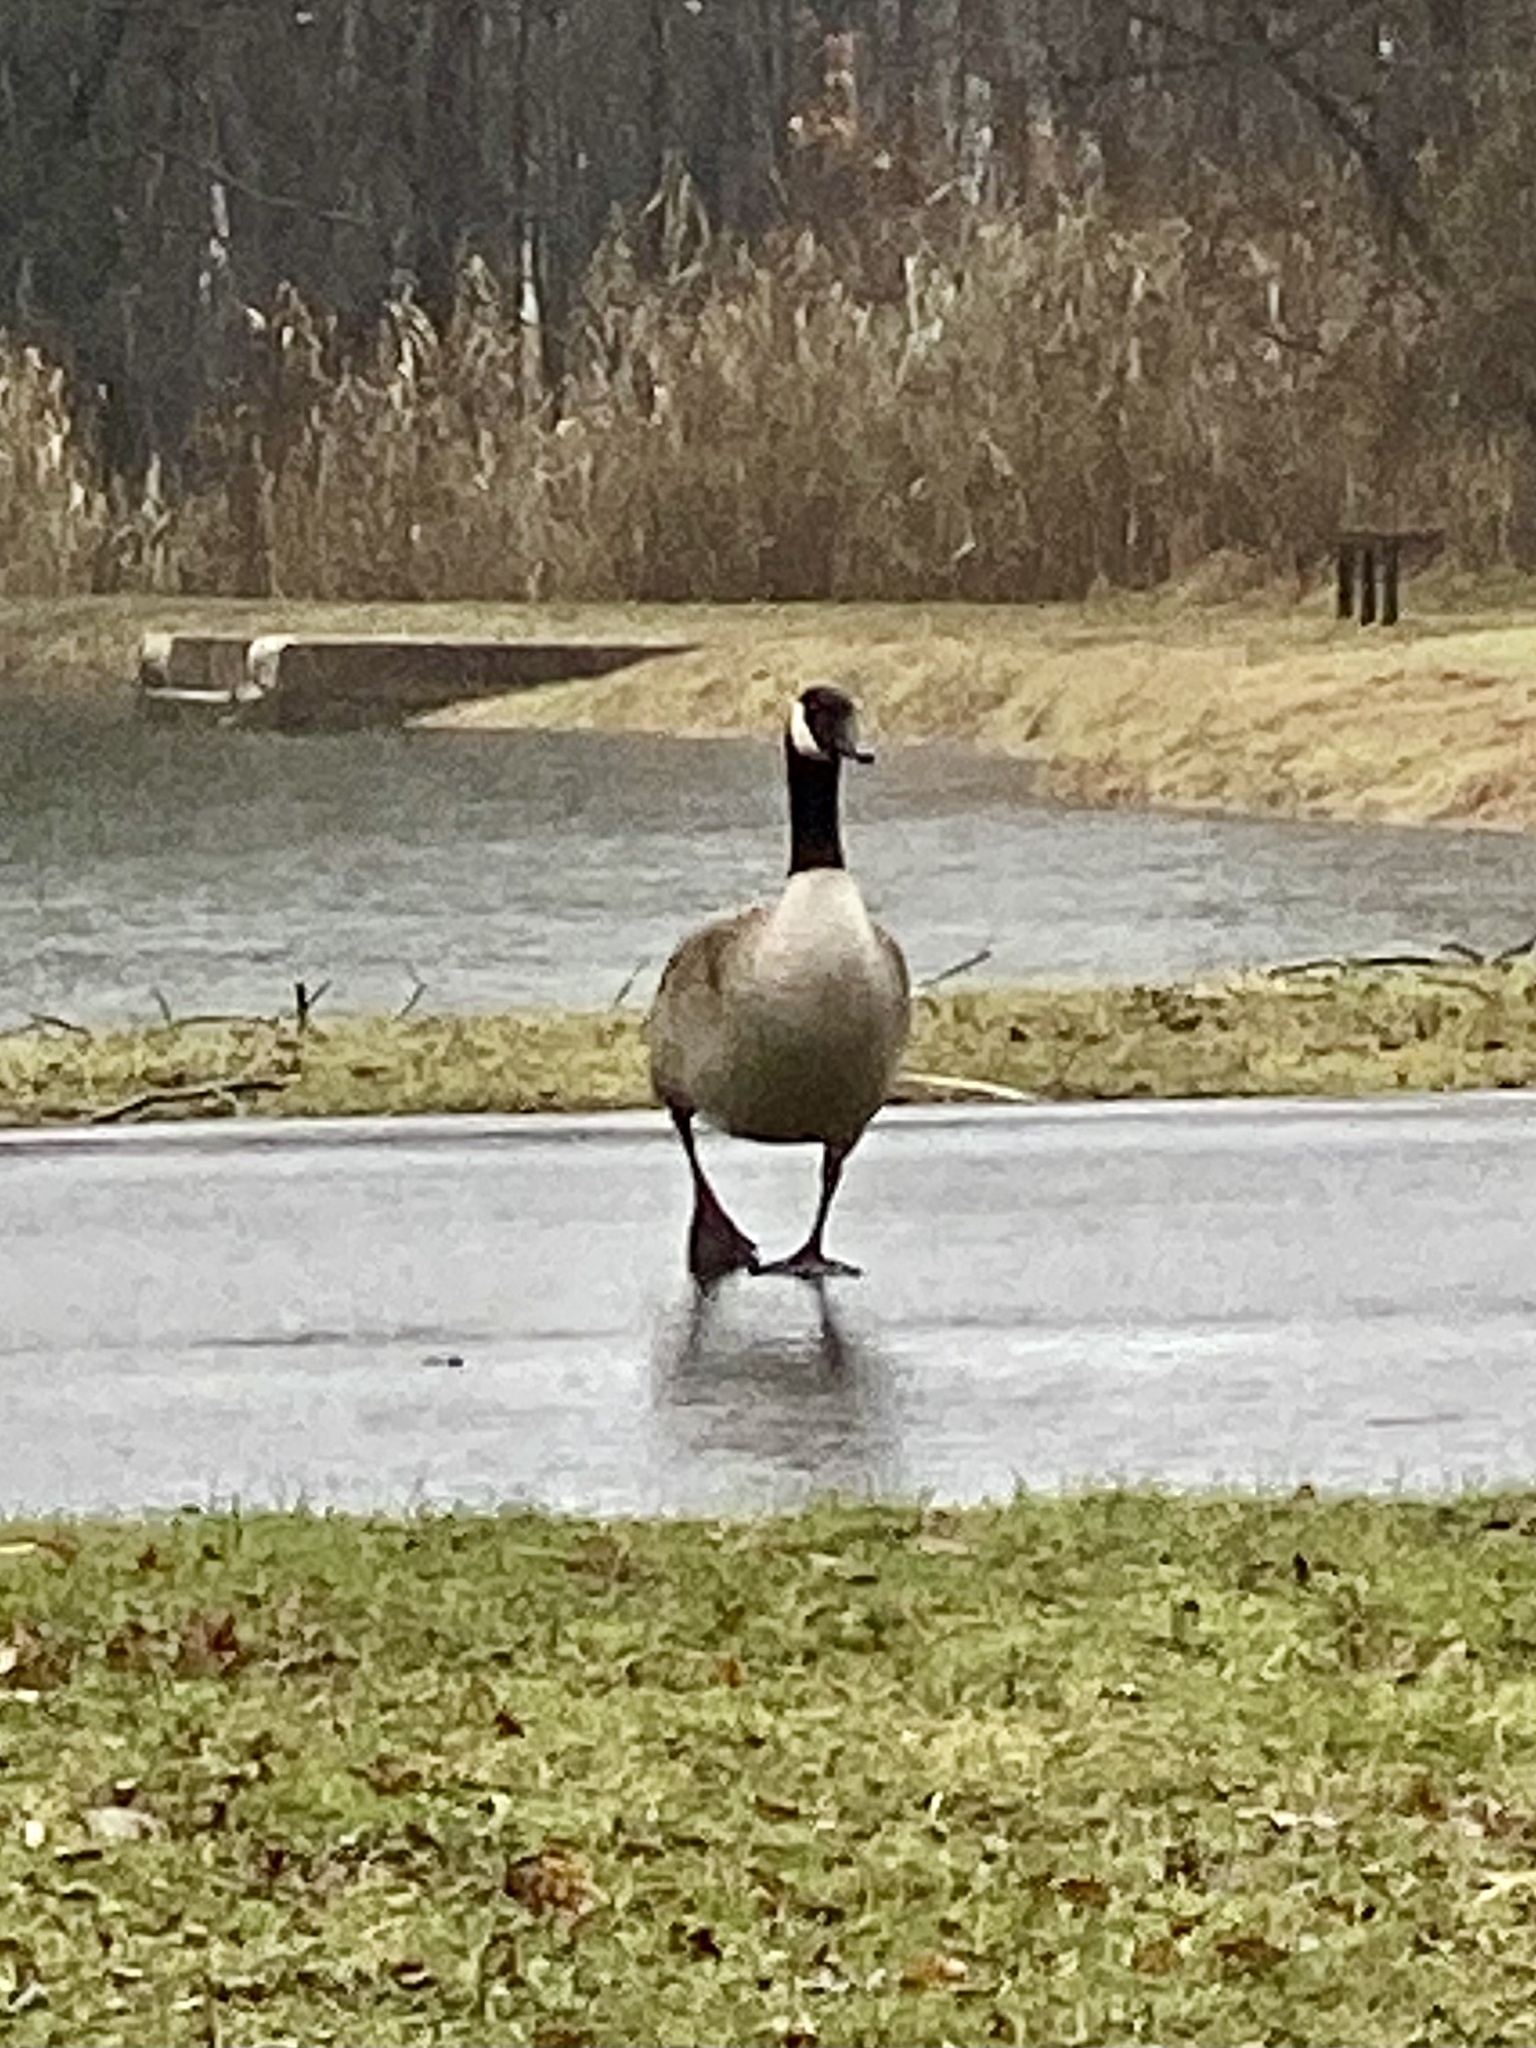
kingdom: Animalia
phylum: Chordata
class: Aves
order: Anseriformes
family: Anatidae
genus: Branta
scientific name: Branta canadensis
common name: Canada goose
